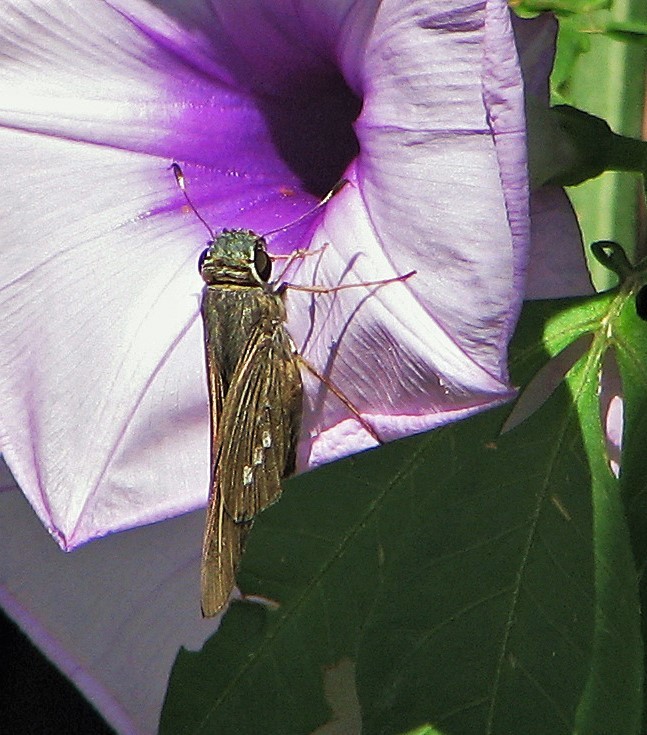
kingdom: Animalia
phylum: Arthropoda
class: Insecta
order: Lepidoptera
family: Hesperiidae
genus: Calpodes
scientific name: Calpodes ethlius
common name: Brazilian skipper
